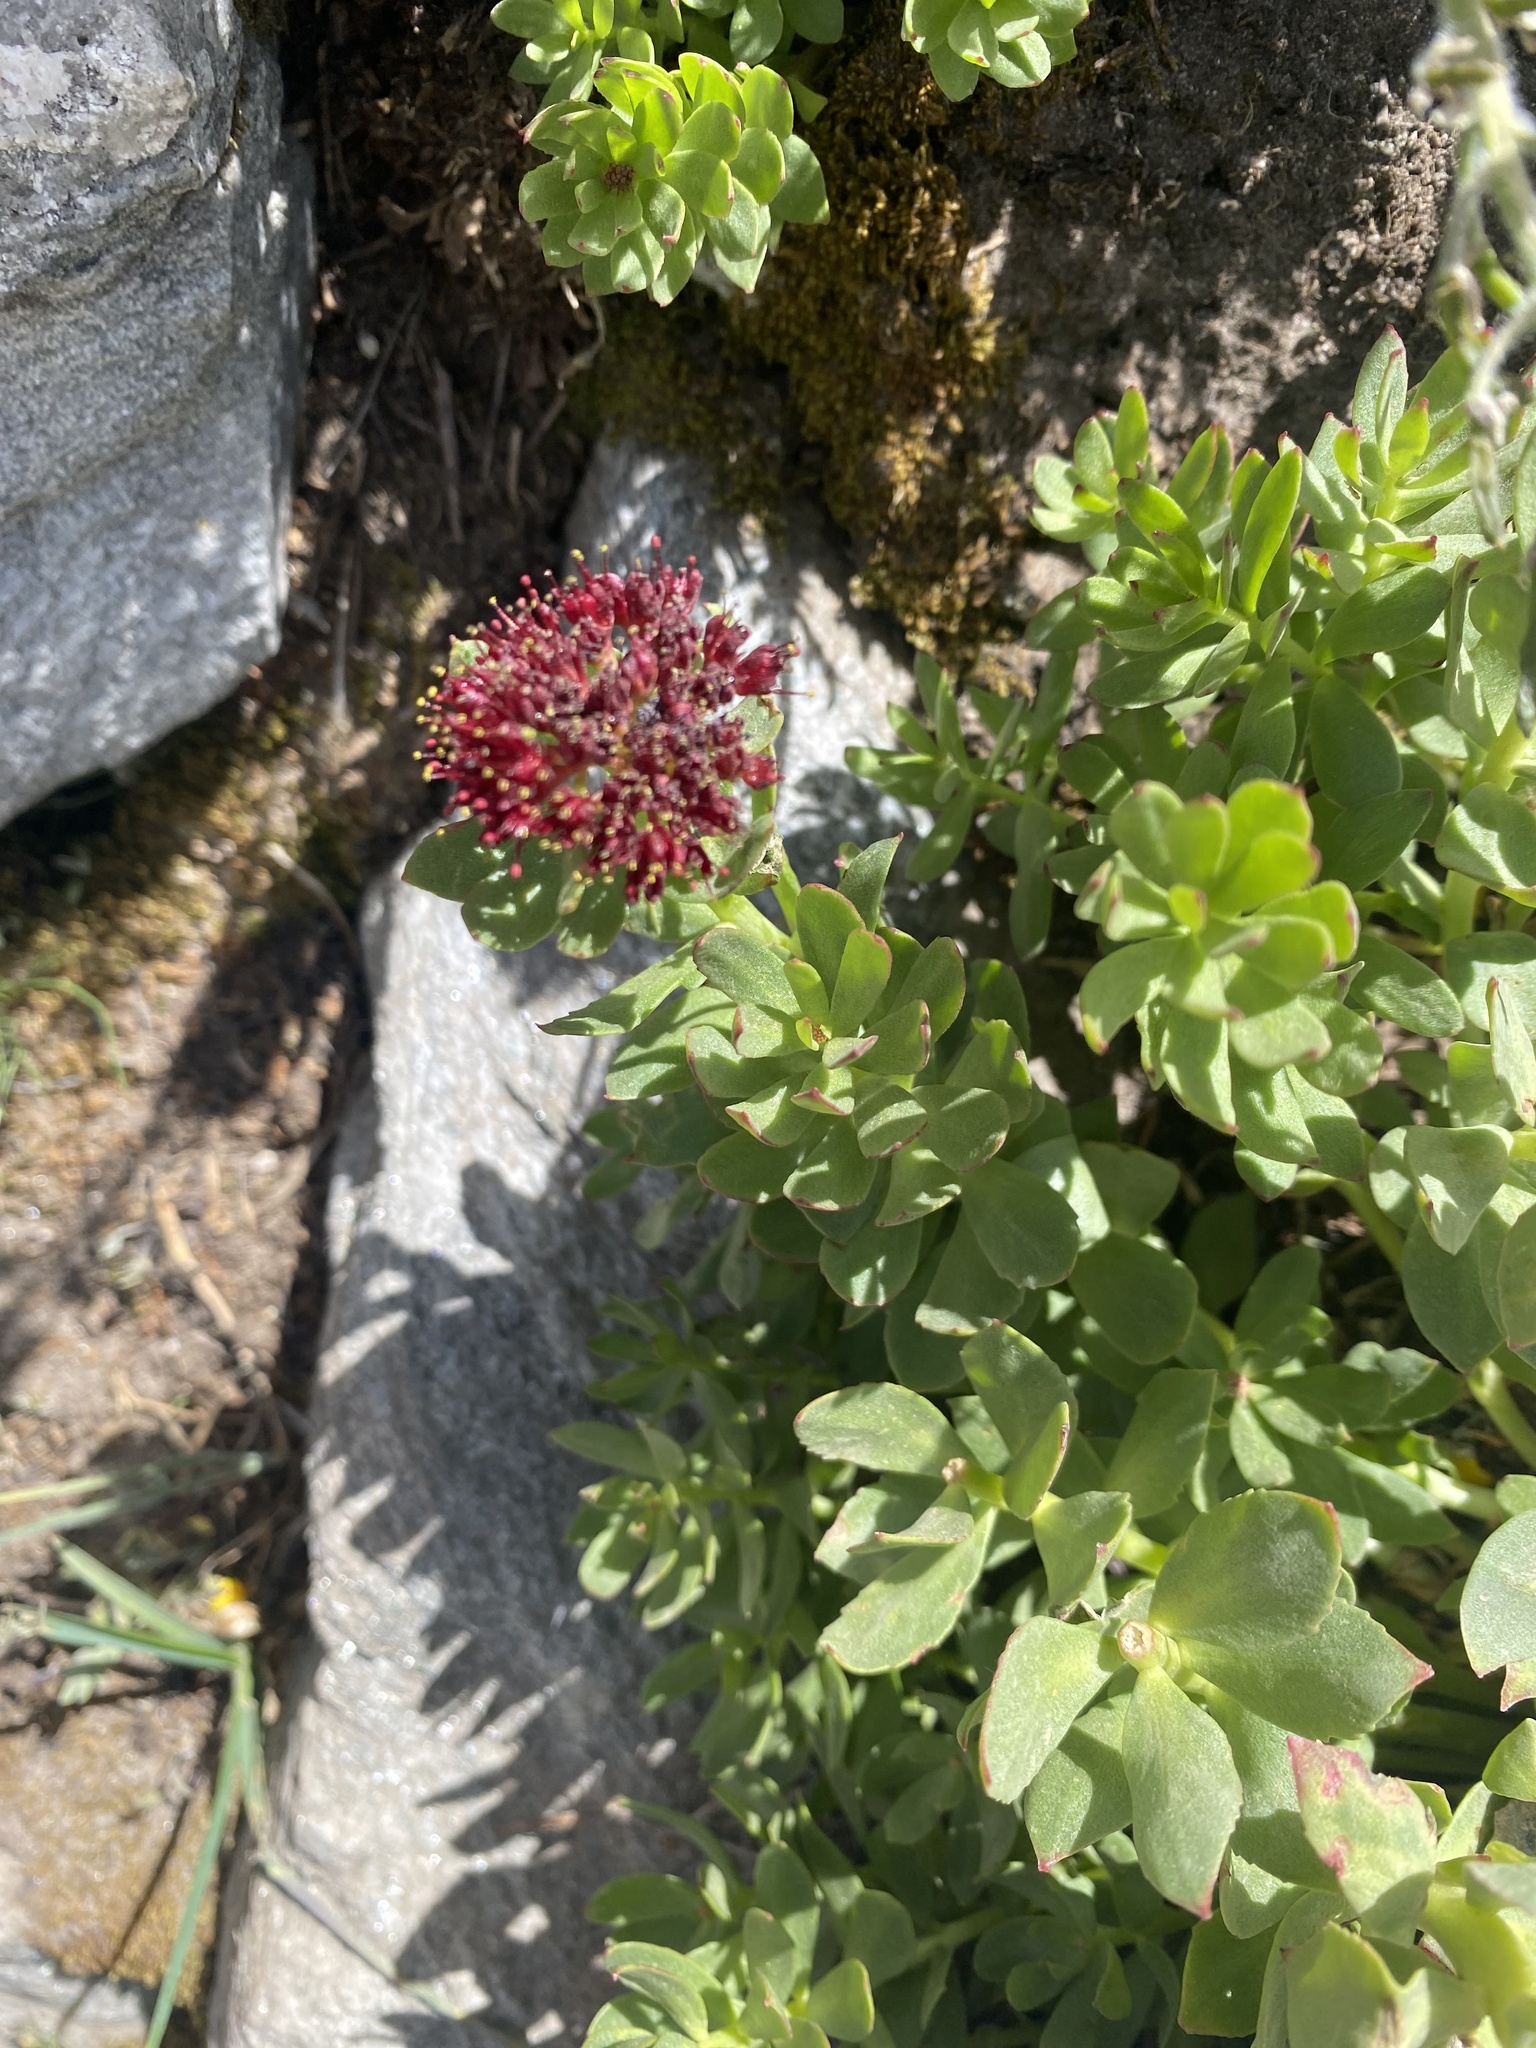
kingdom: Plantae
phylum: Tracheophyta
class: Magnoliopsida
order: Saxifragales
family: Crassulaceae
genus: Rhodiola
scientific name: Rhodiola integrifolia
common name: Western roseroot
